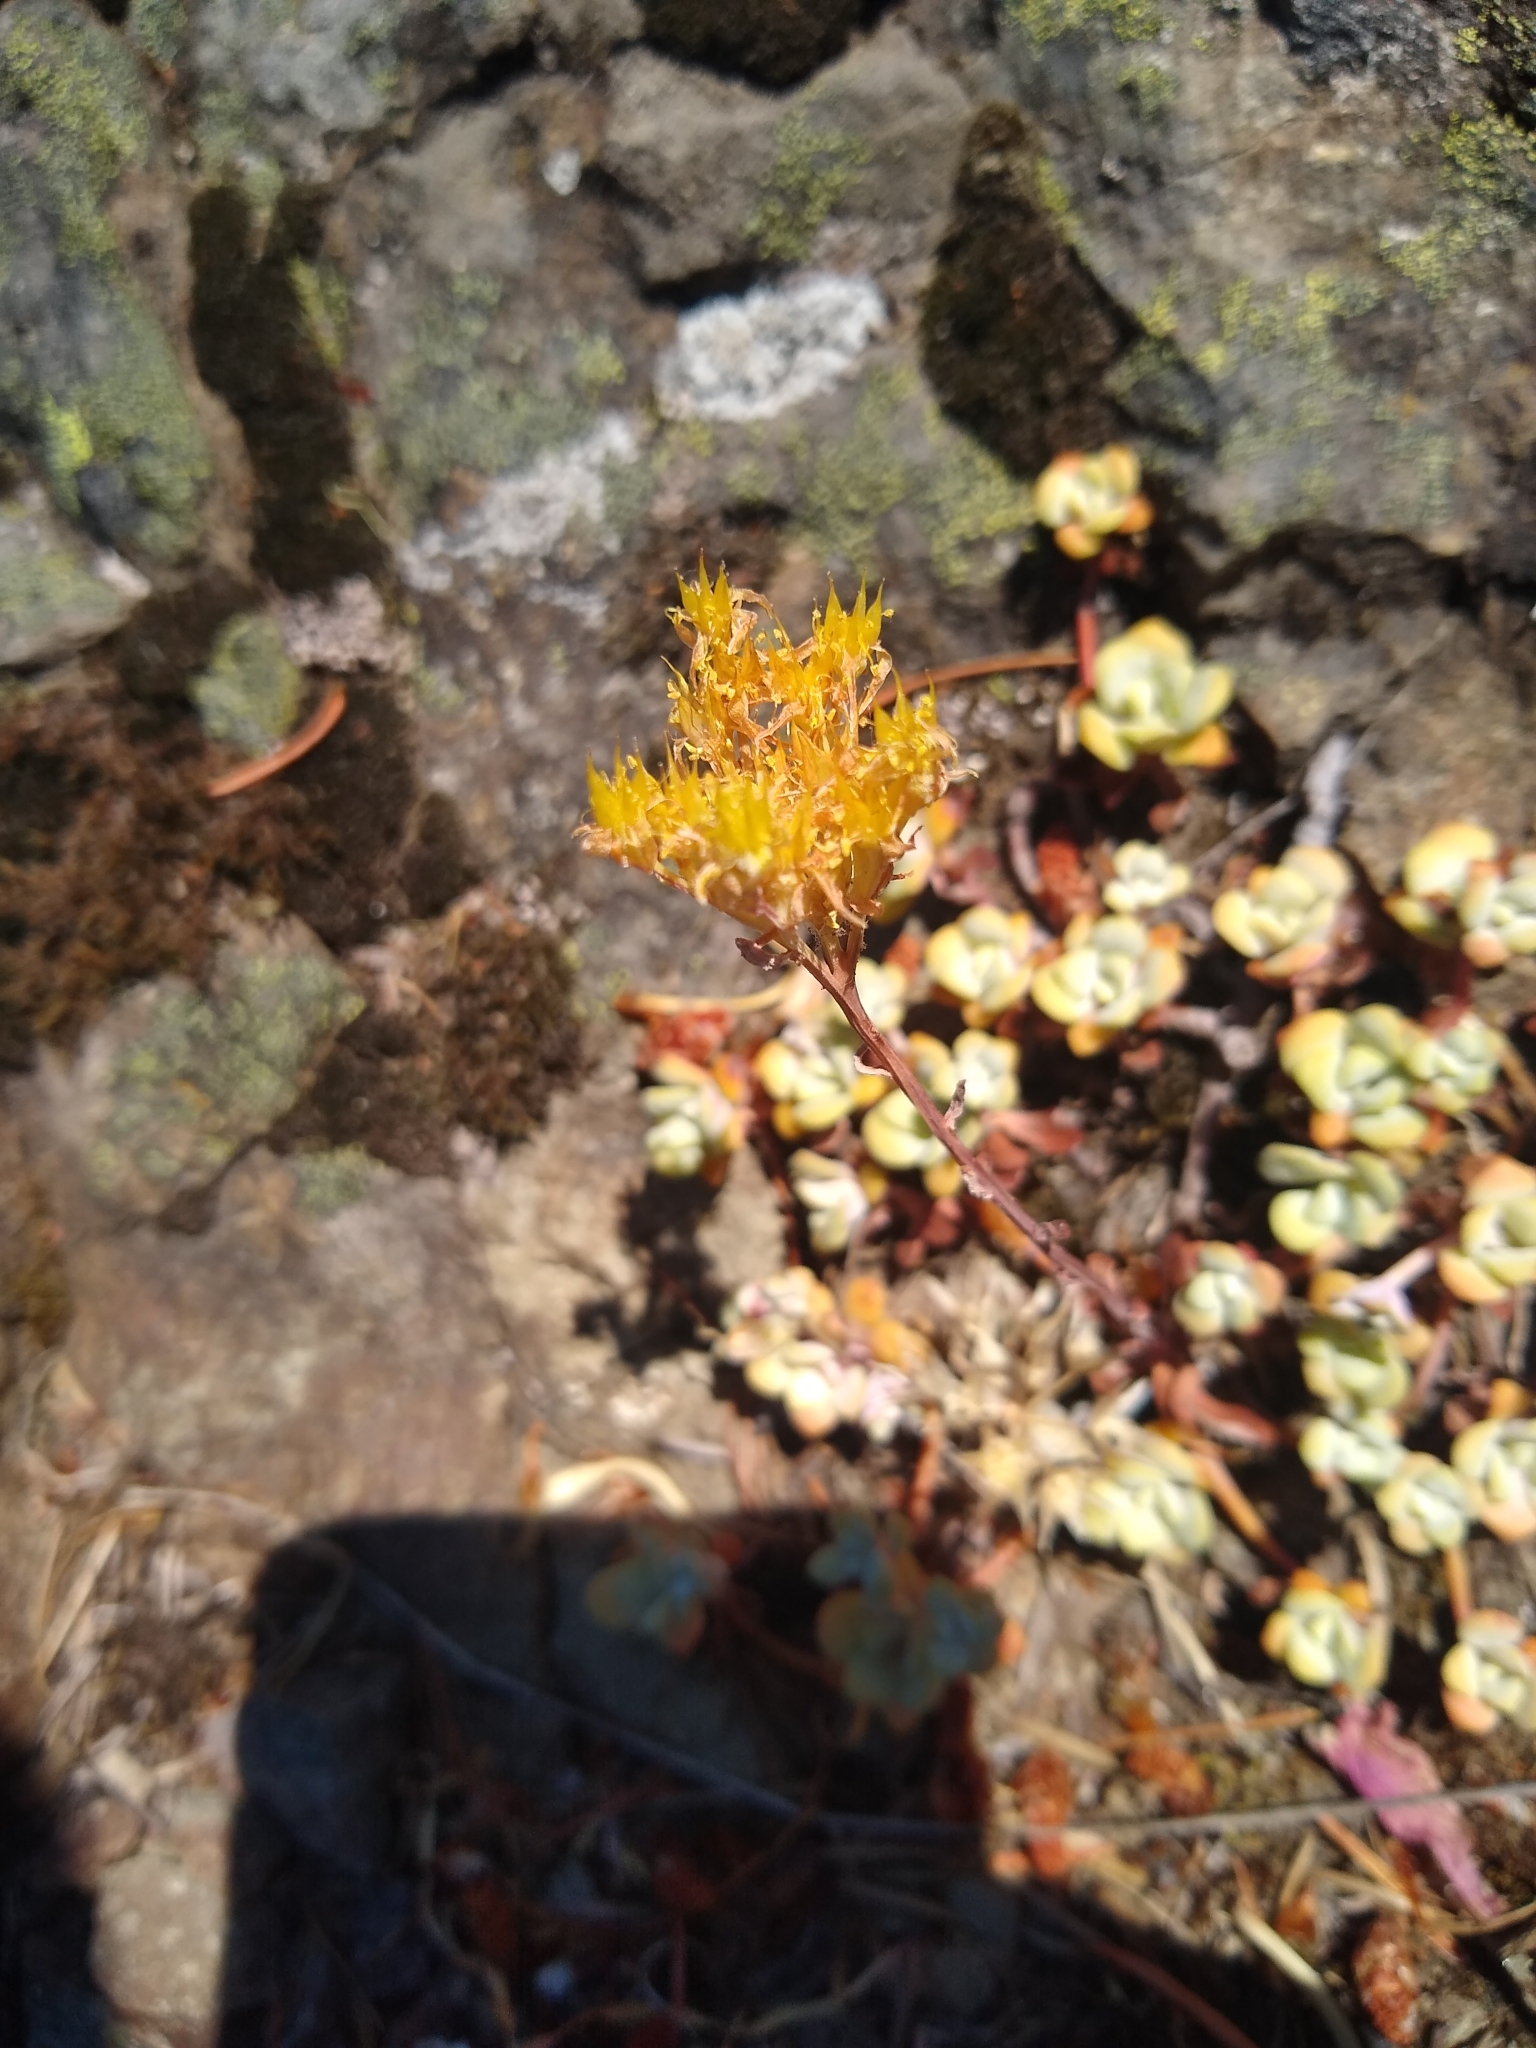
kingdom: Plantae
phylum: Tracheophyta
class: Magnoliopsida
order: Saxifragales
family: Crassulaceae
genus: Sedum
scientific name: Sedum spathulifolium
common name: Colorado stonecrop
